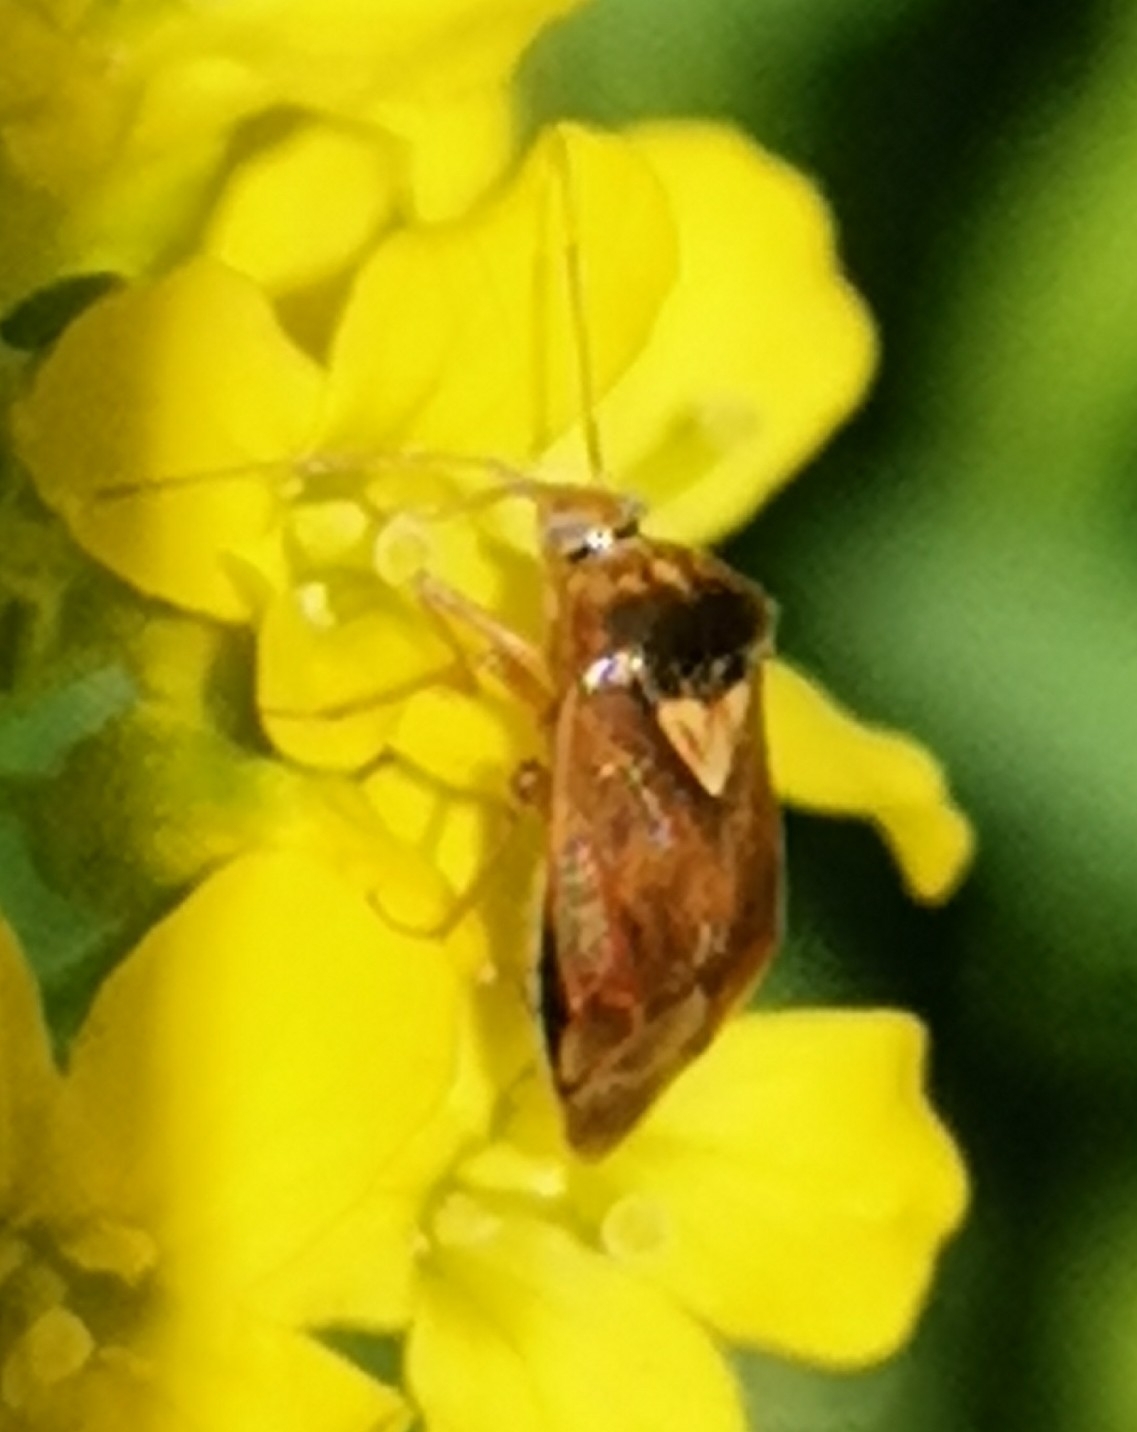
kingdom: Animalia
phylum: Arthropoda
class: Insecta
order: Hemiptera
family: Miridae
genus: Lygus
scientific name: Lygus rugulipennis
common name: European tarnished plant bug
